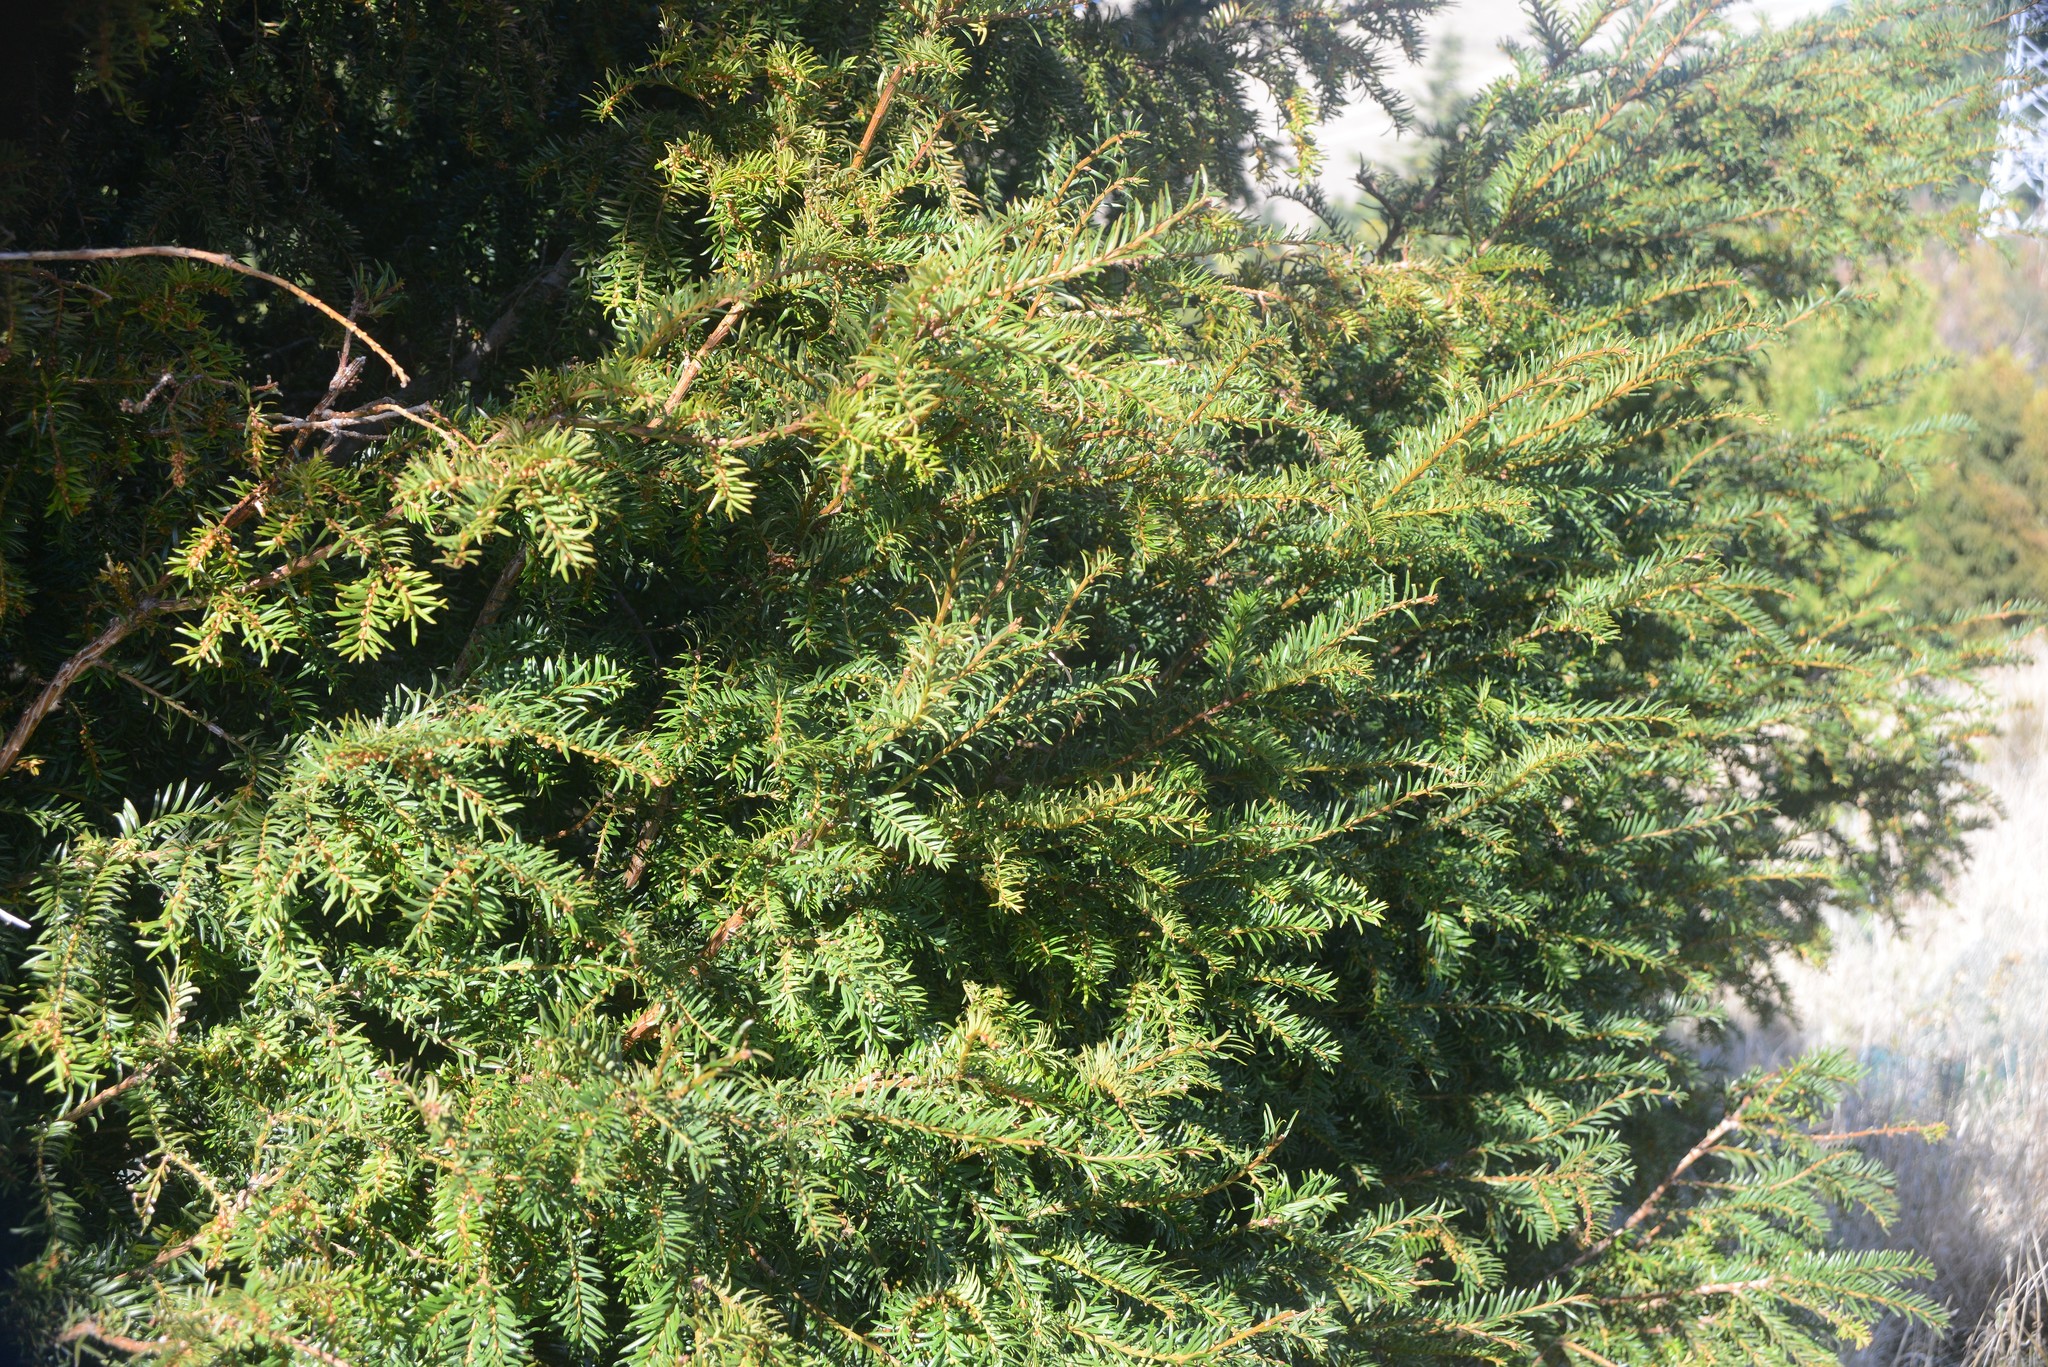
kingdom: Plantae
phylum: Tracheophyta
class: Pinopsida
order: Pinales
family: Taxaceae
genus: Taxus
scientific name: Taxus baccata
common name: Yew
